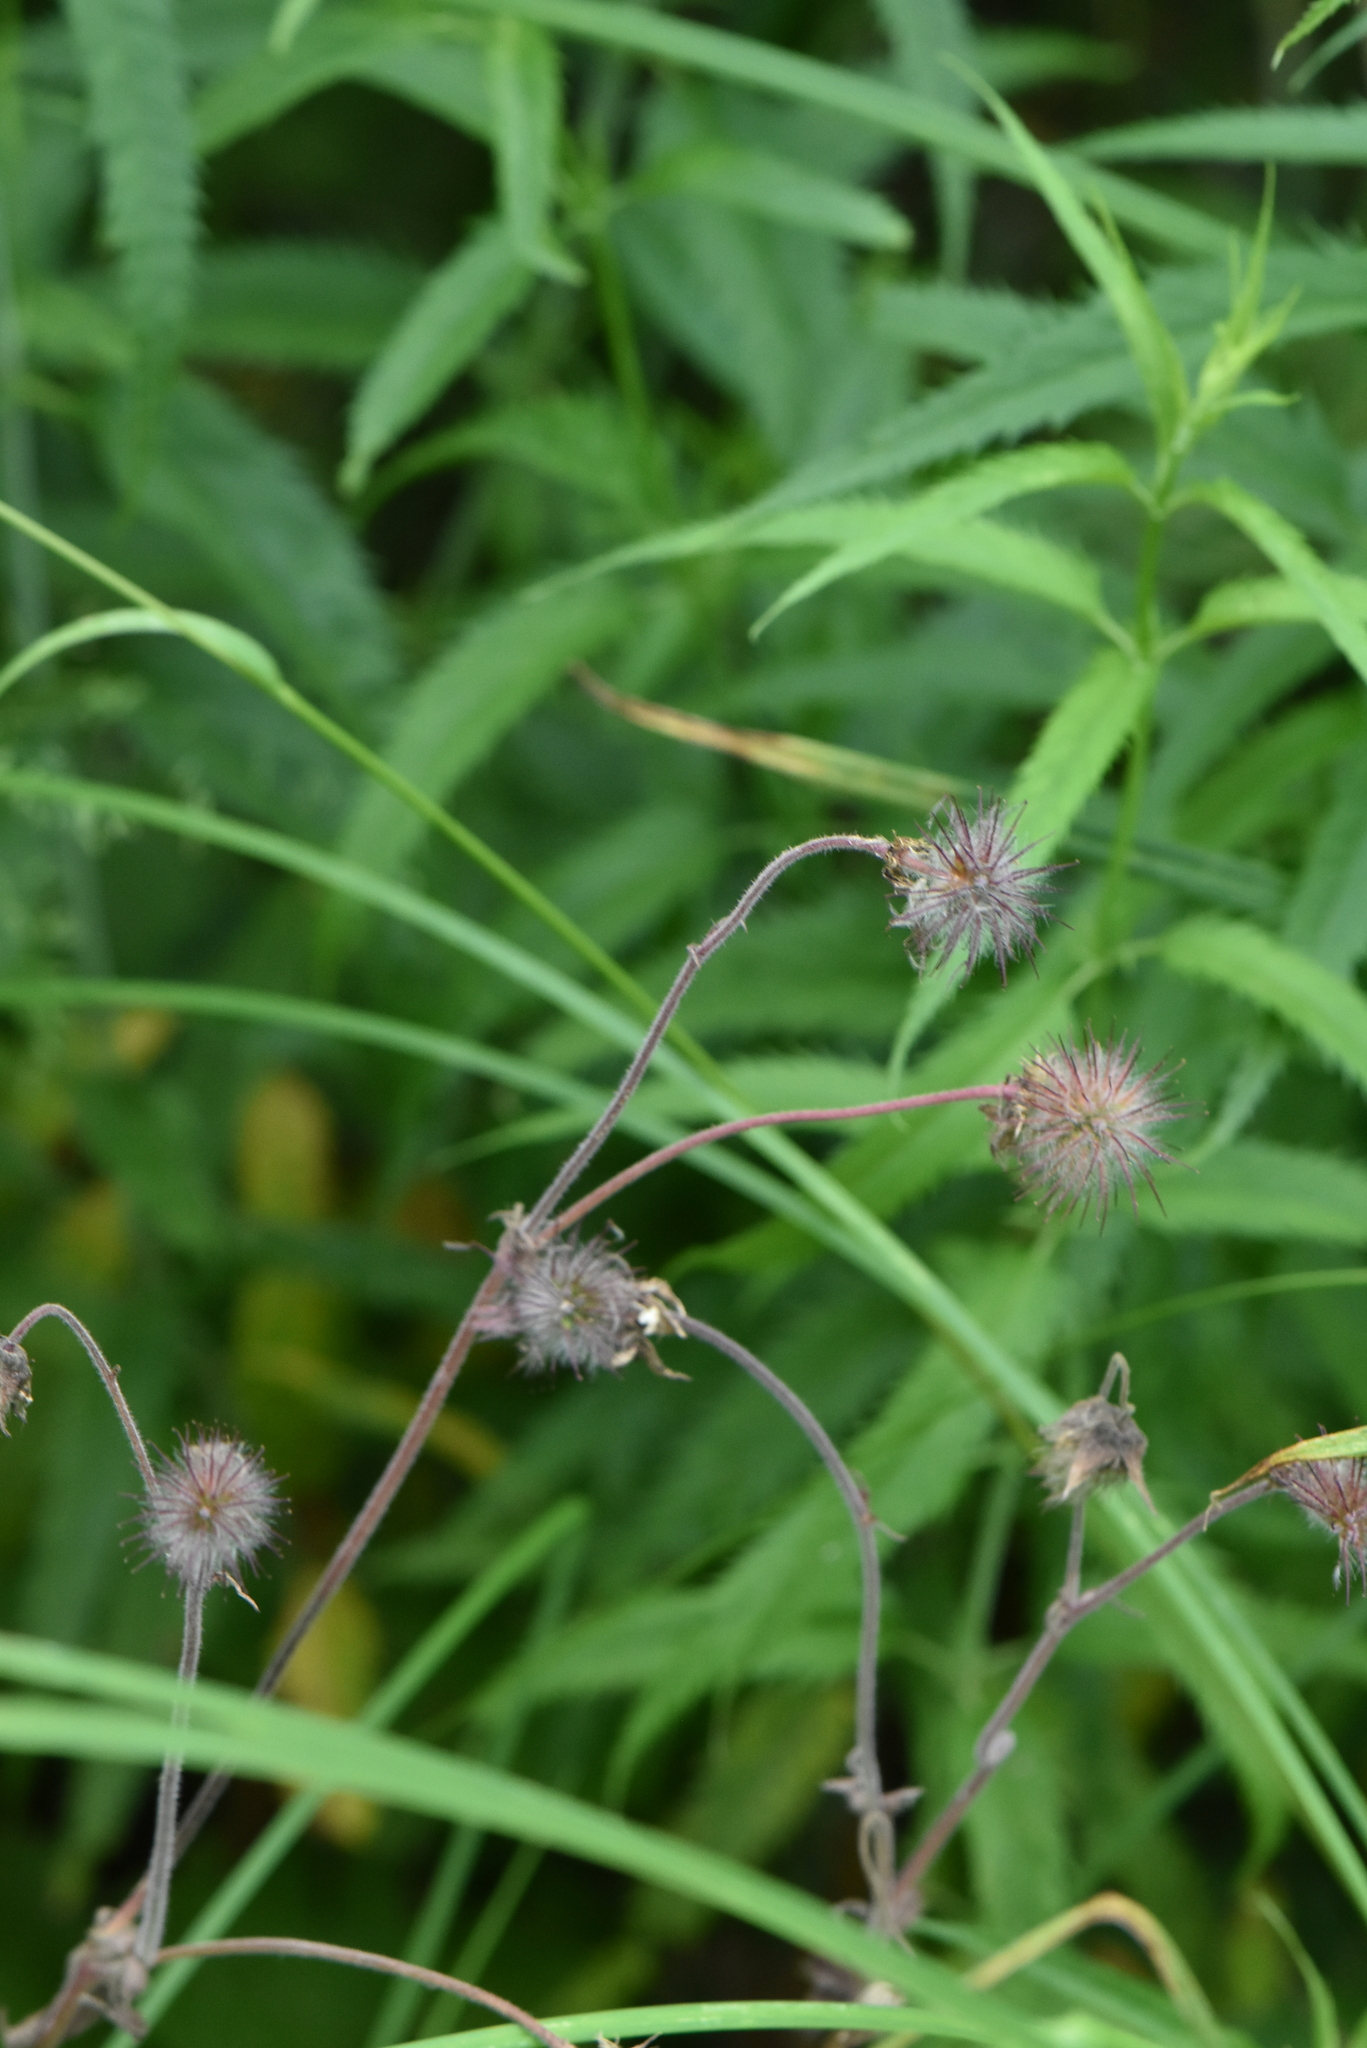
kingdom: Plantae
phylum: Tracheophyta
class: Magnoliopsida
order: Rosales
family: Rosaceae
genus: Geum
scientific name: Geum rivale
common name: Water avens
